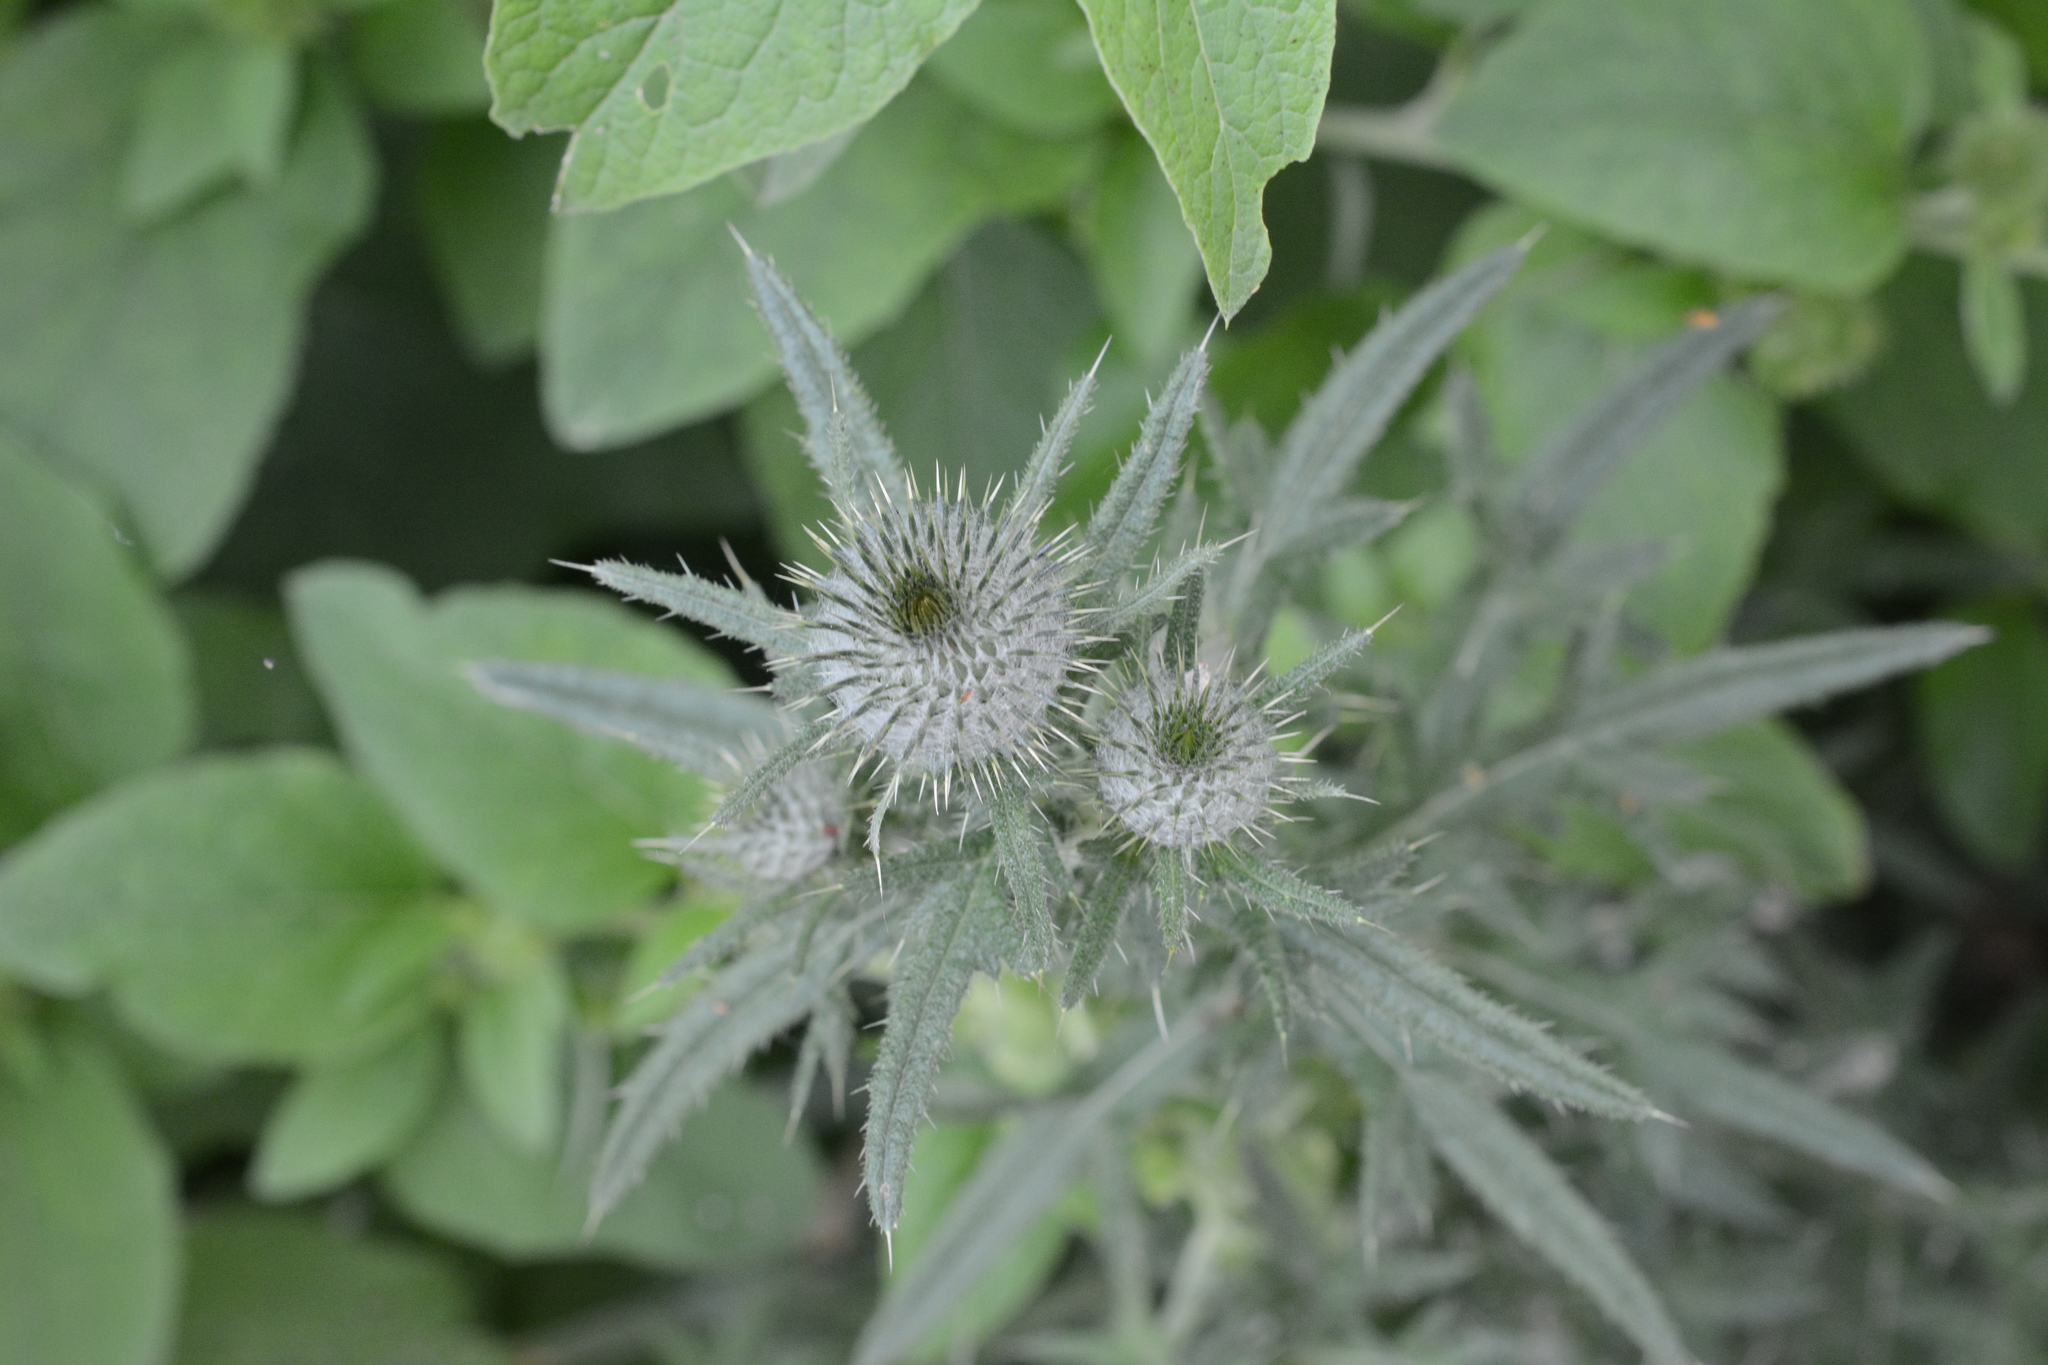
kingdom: Plantae
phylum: Tracheophyta
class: Magnoliopsida
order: Asterales
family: Asteraceae
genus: Cirsium
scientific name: Cirsium vulgare
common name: Bull thistle
